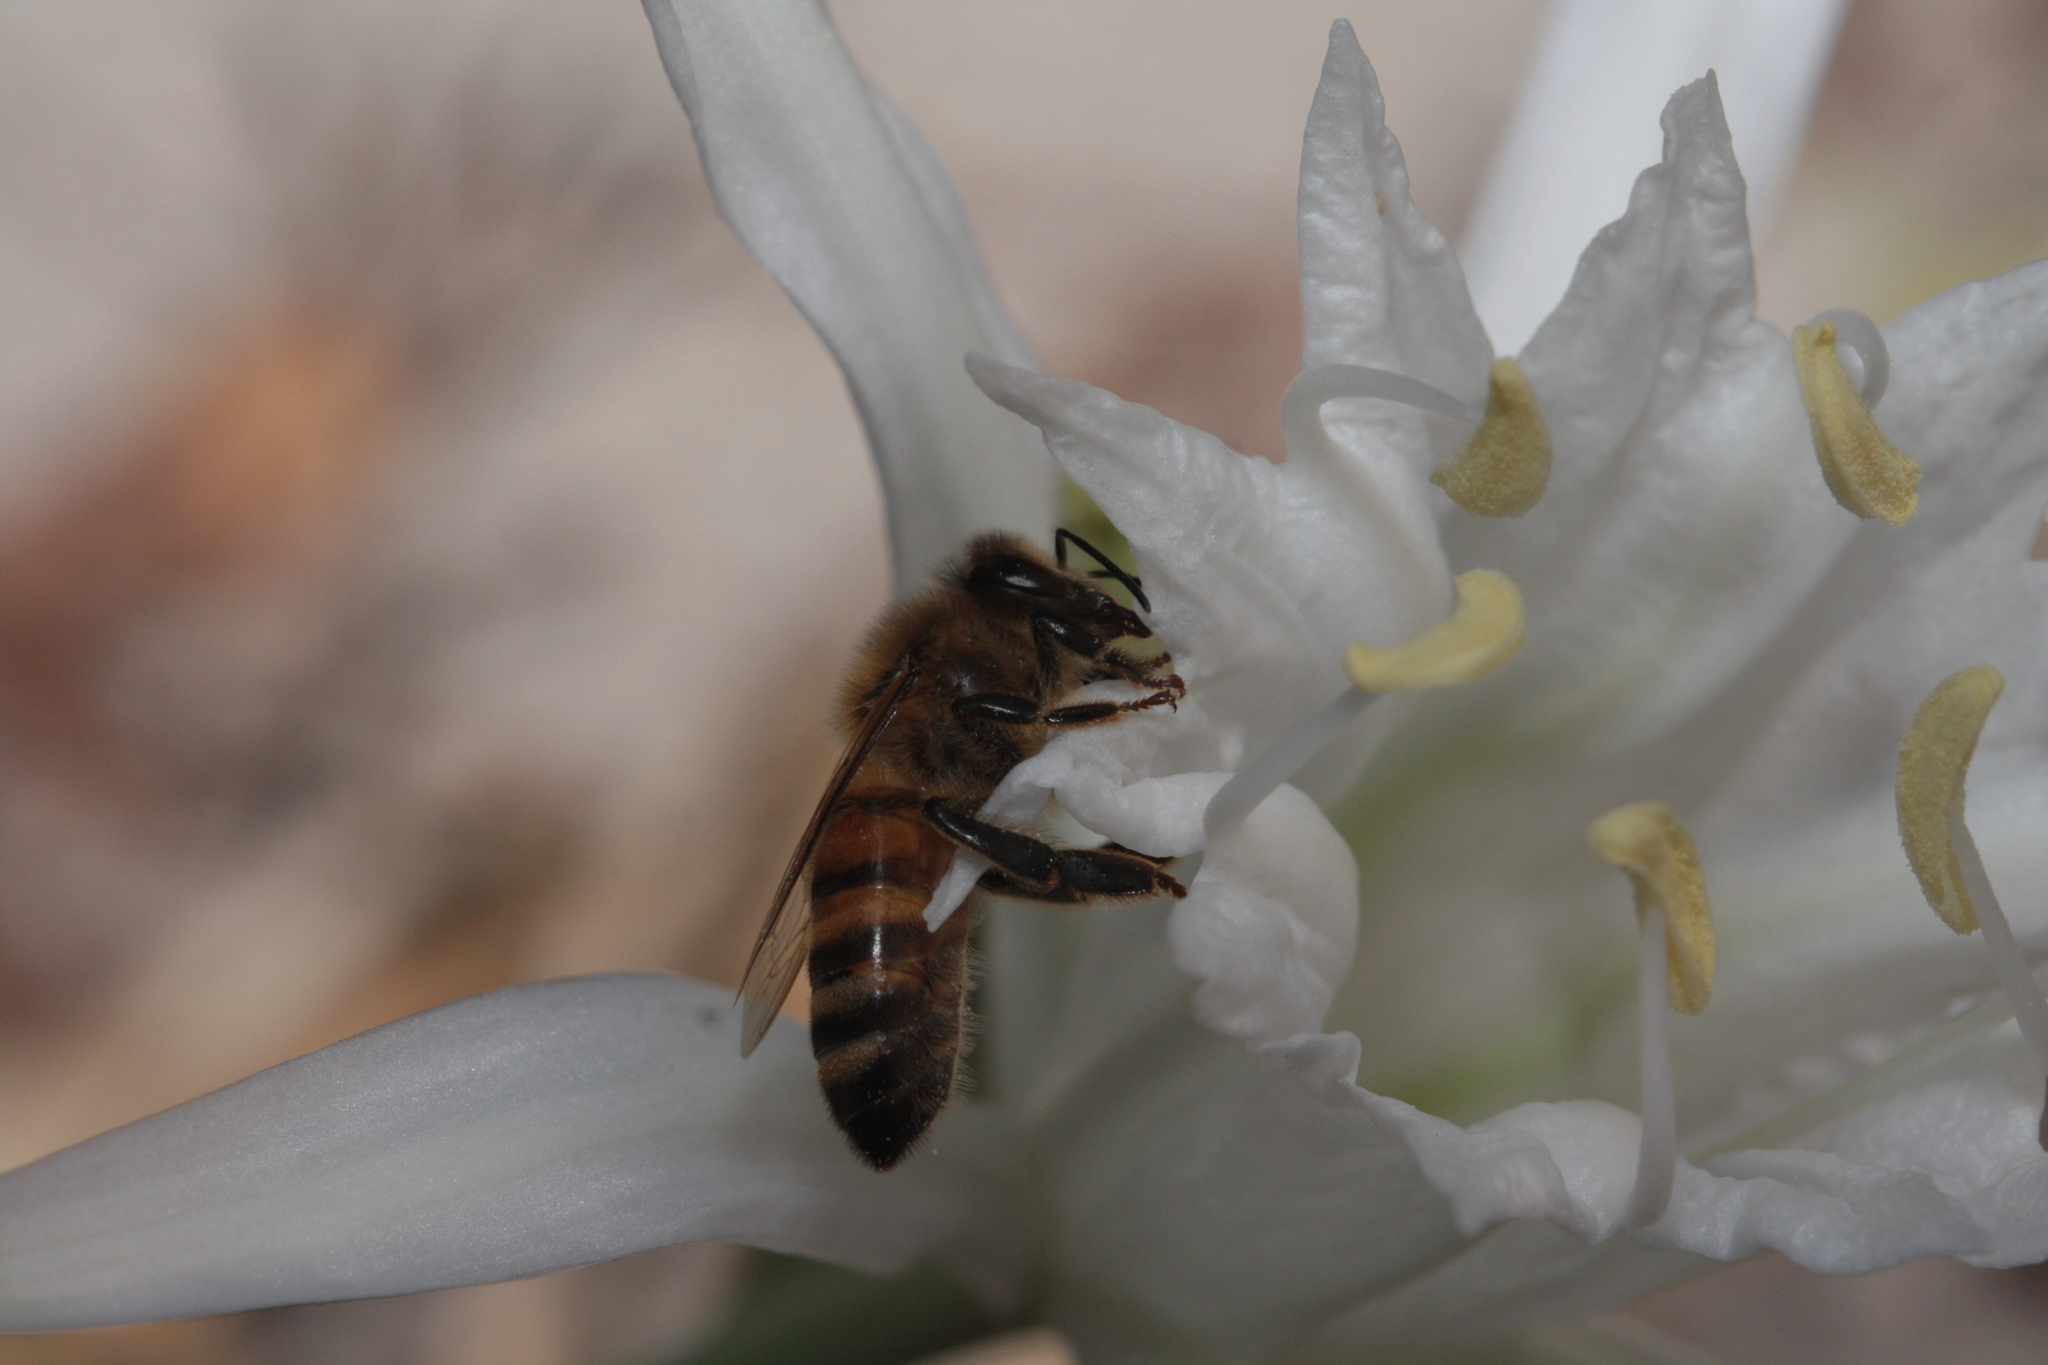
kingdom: Animalia
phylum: Arthropoda
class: Insecta
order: Hymenoptera
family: Apidae
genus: Apis
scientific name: Apis mellifera
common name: Honey bee
